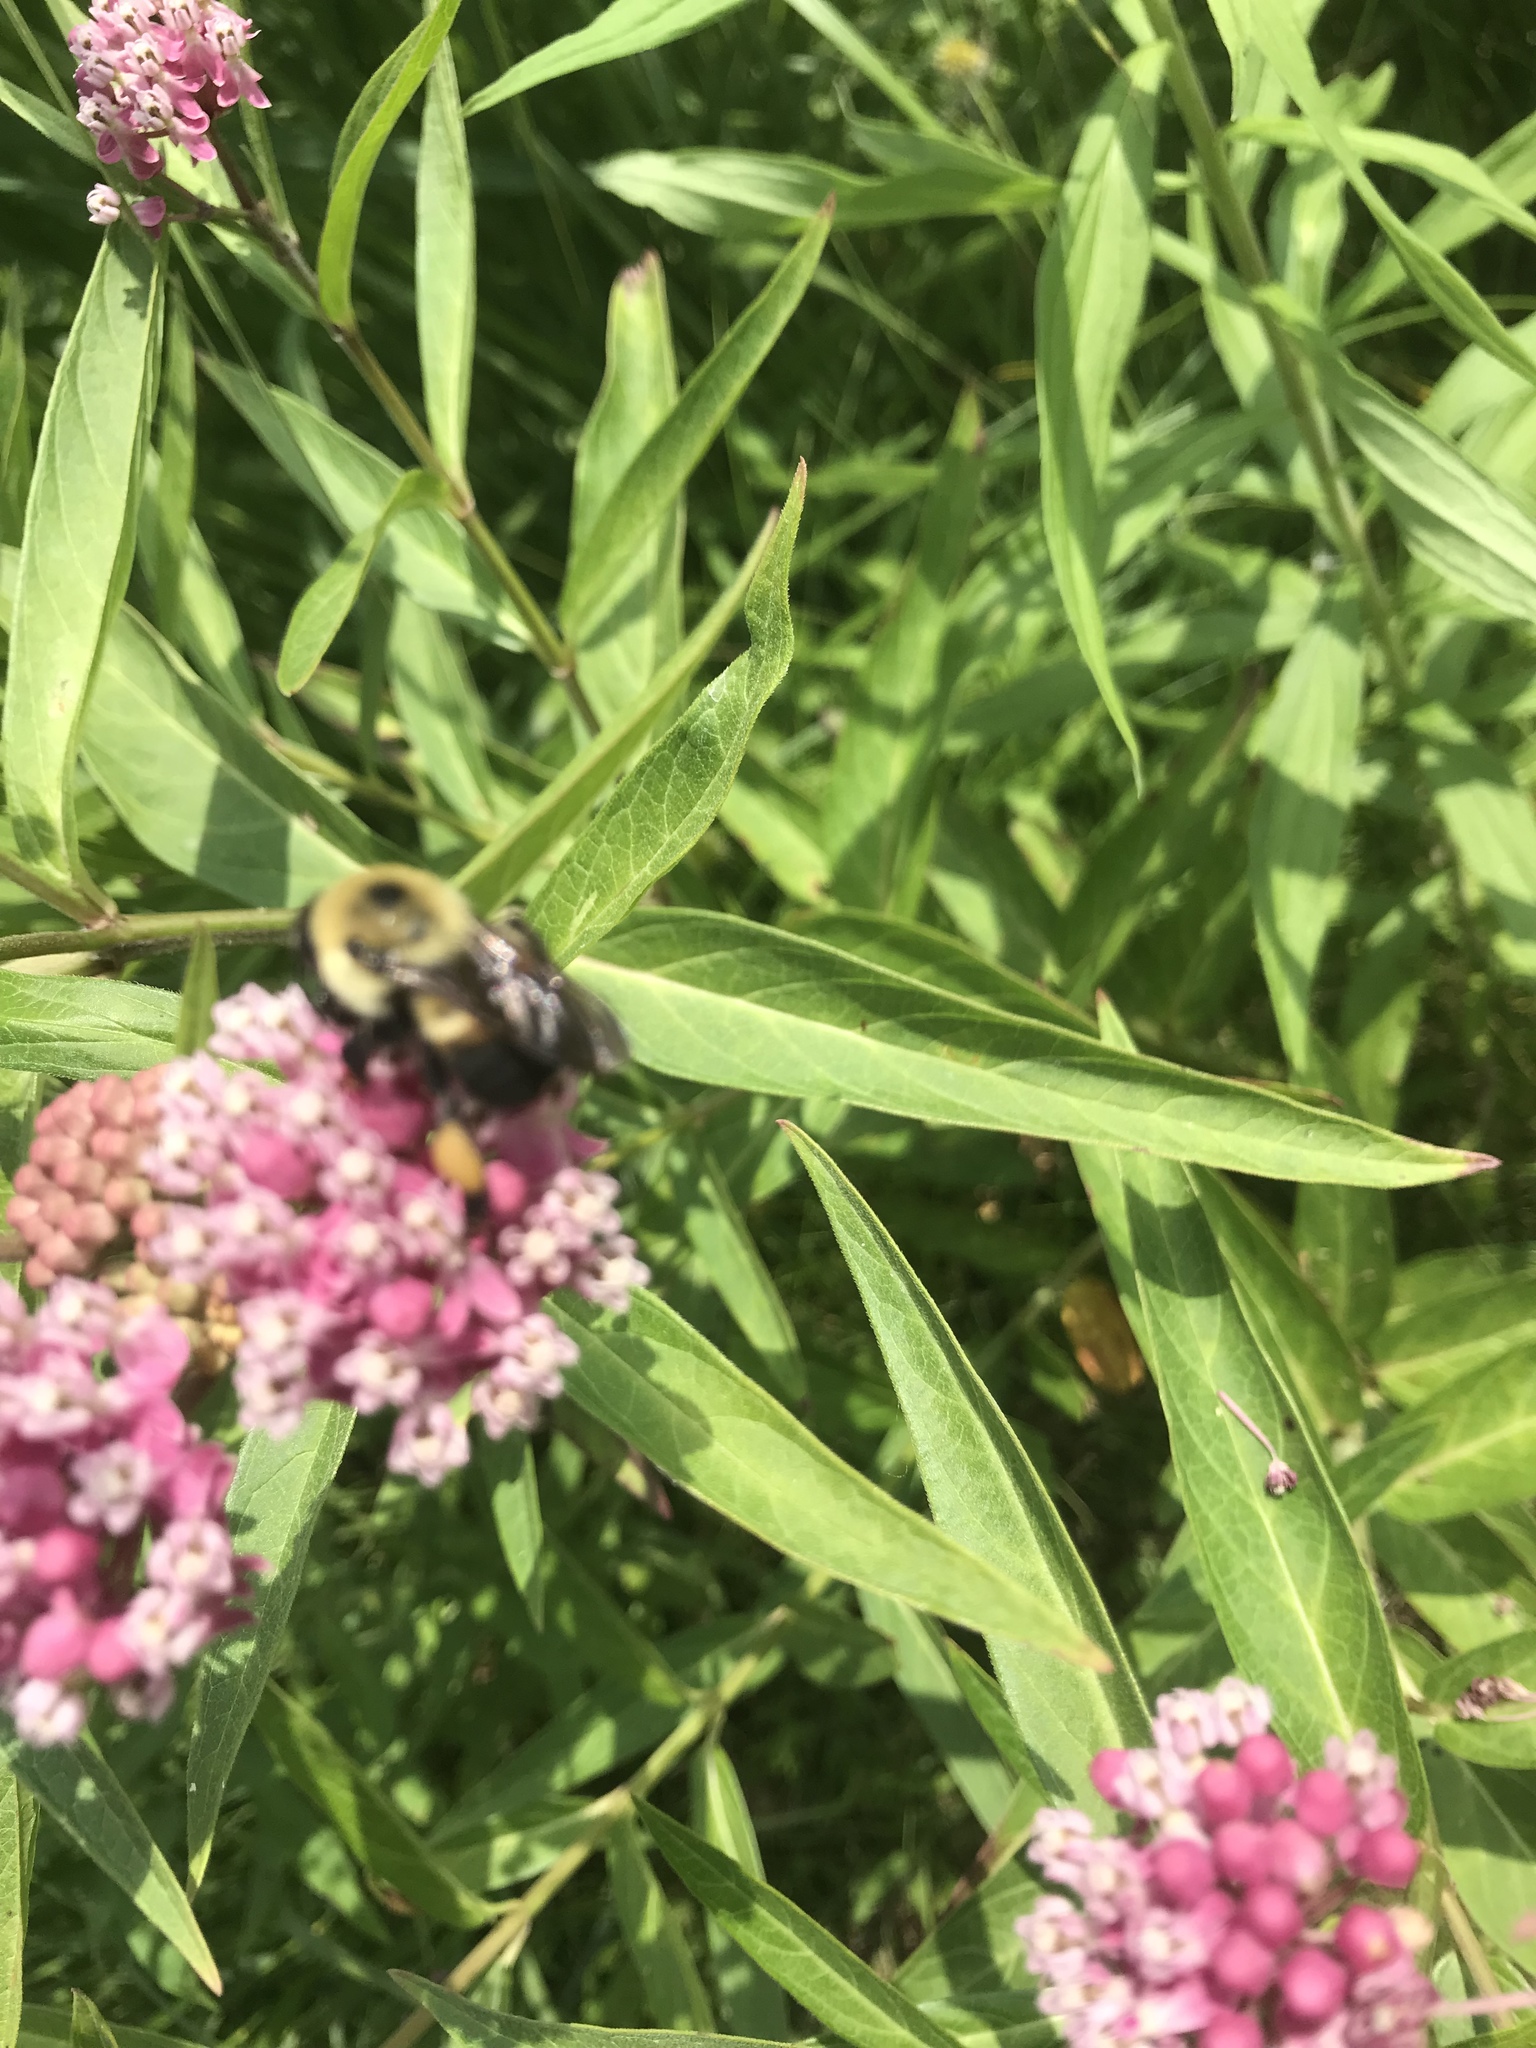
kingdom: Animalia
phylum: Arthropoda
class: Insecta
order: Hymenoptera
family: Apidae
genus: Bombus
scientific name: Bombus griseocollis
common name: Brown-belted bumble bee
